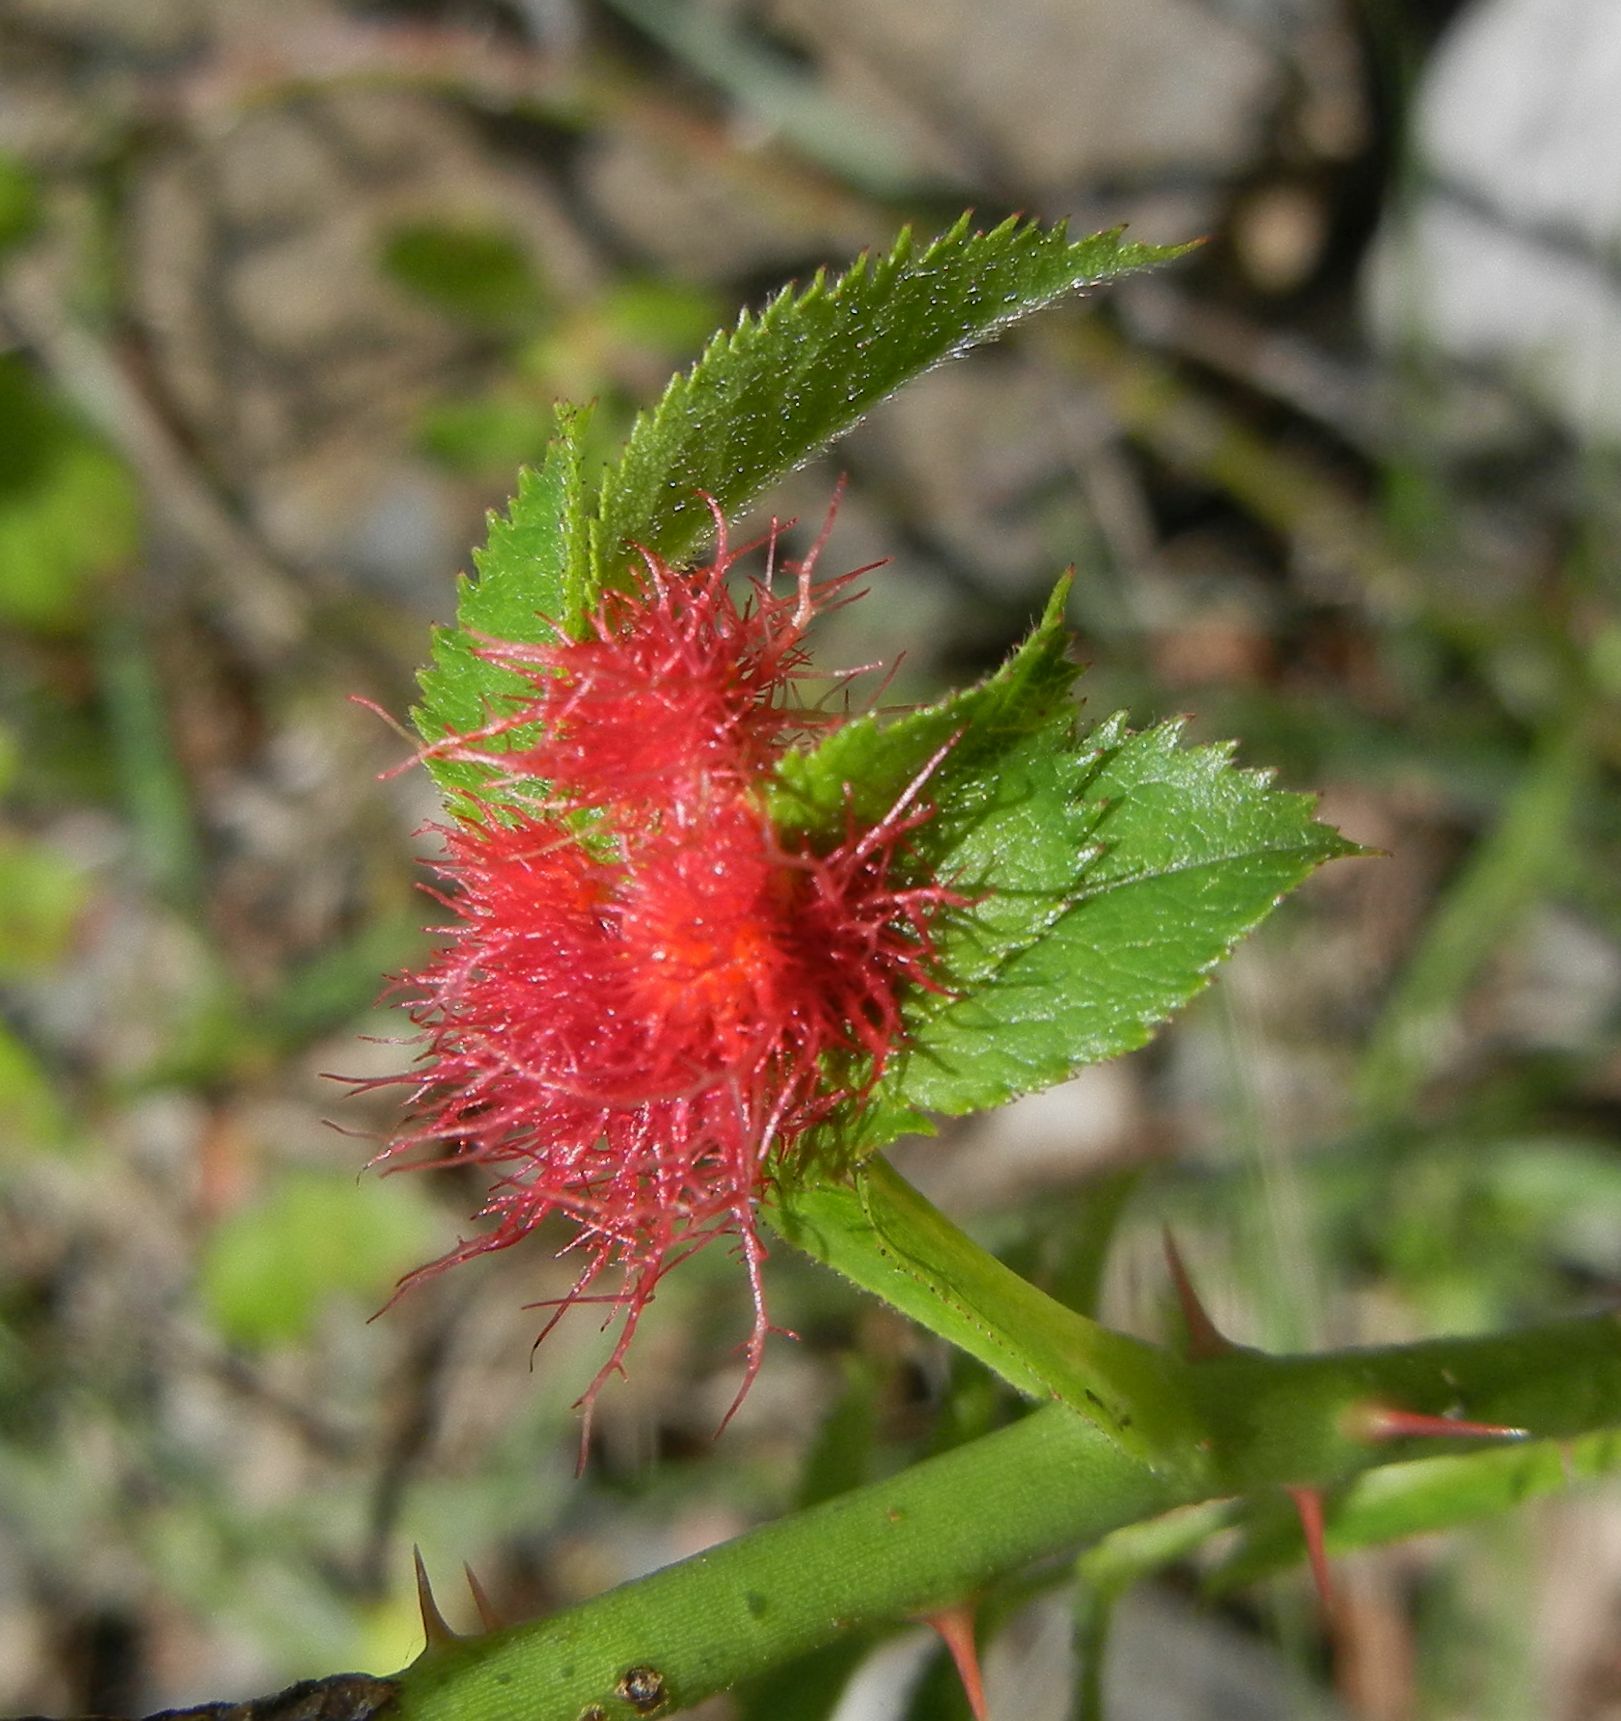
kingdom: Animalia
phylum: Arthropoda
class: Insecta
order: Hymenoptera
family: Cynipidae
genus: Diplolepis
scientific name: Diplolepis rosae
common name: Bedeguar gall
